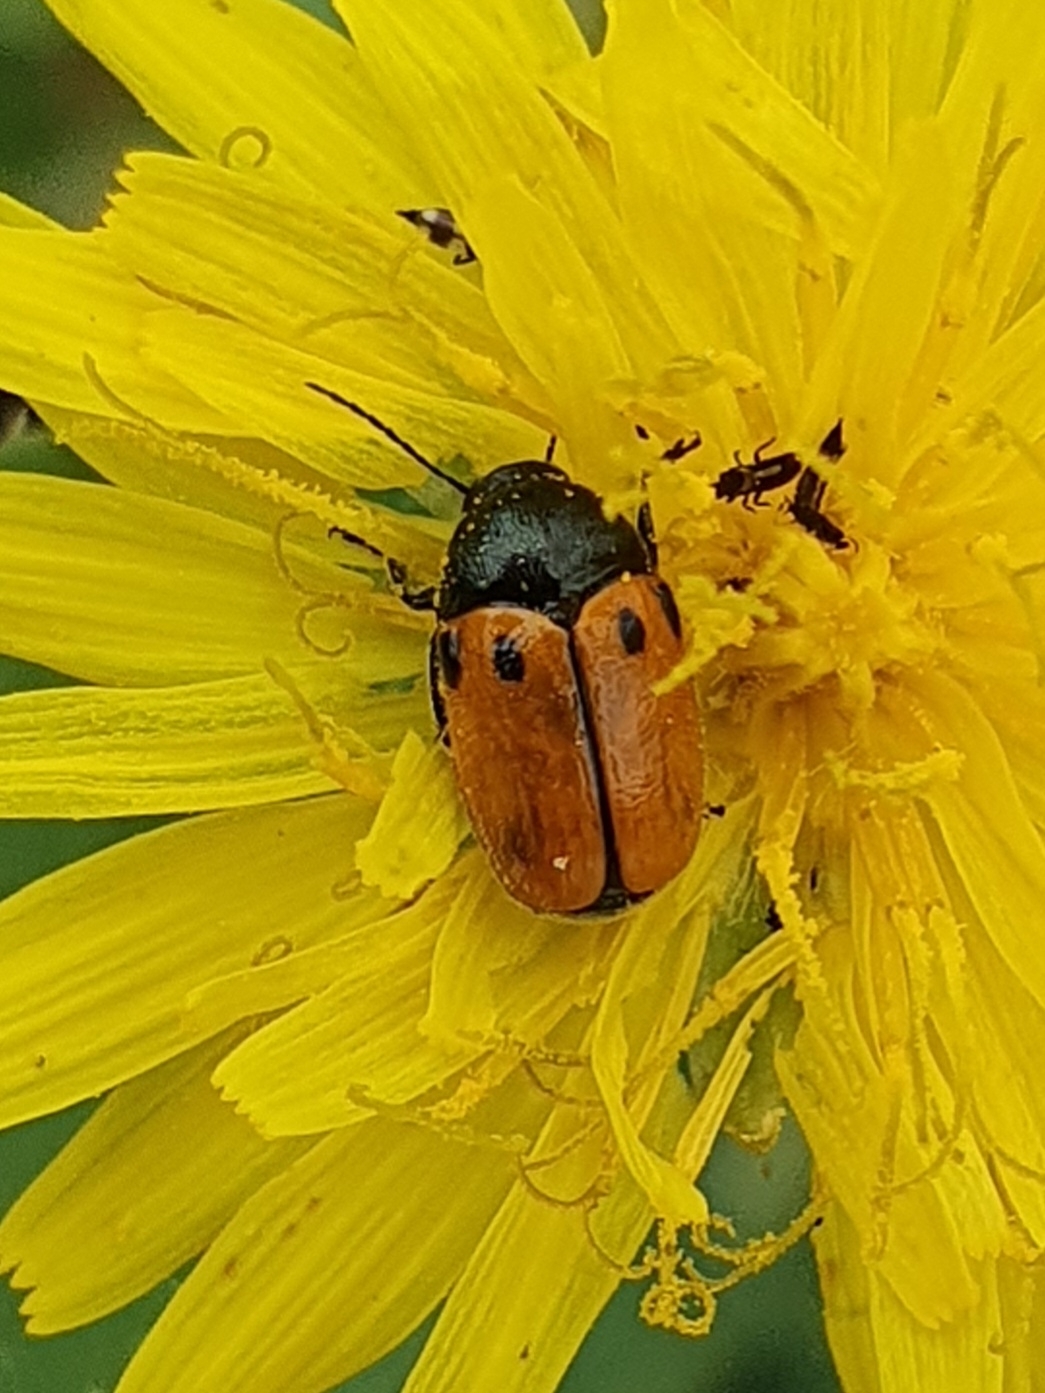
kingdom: Animalia
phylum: Arthropoda
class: Insecta
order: Coleoptera
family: Chrysomelidae
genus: Cryptocephalus
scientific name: Cryptocephalus rugicollis
